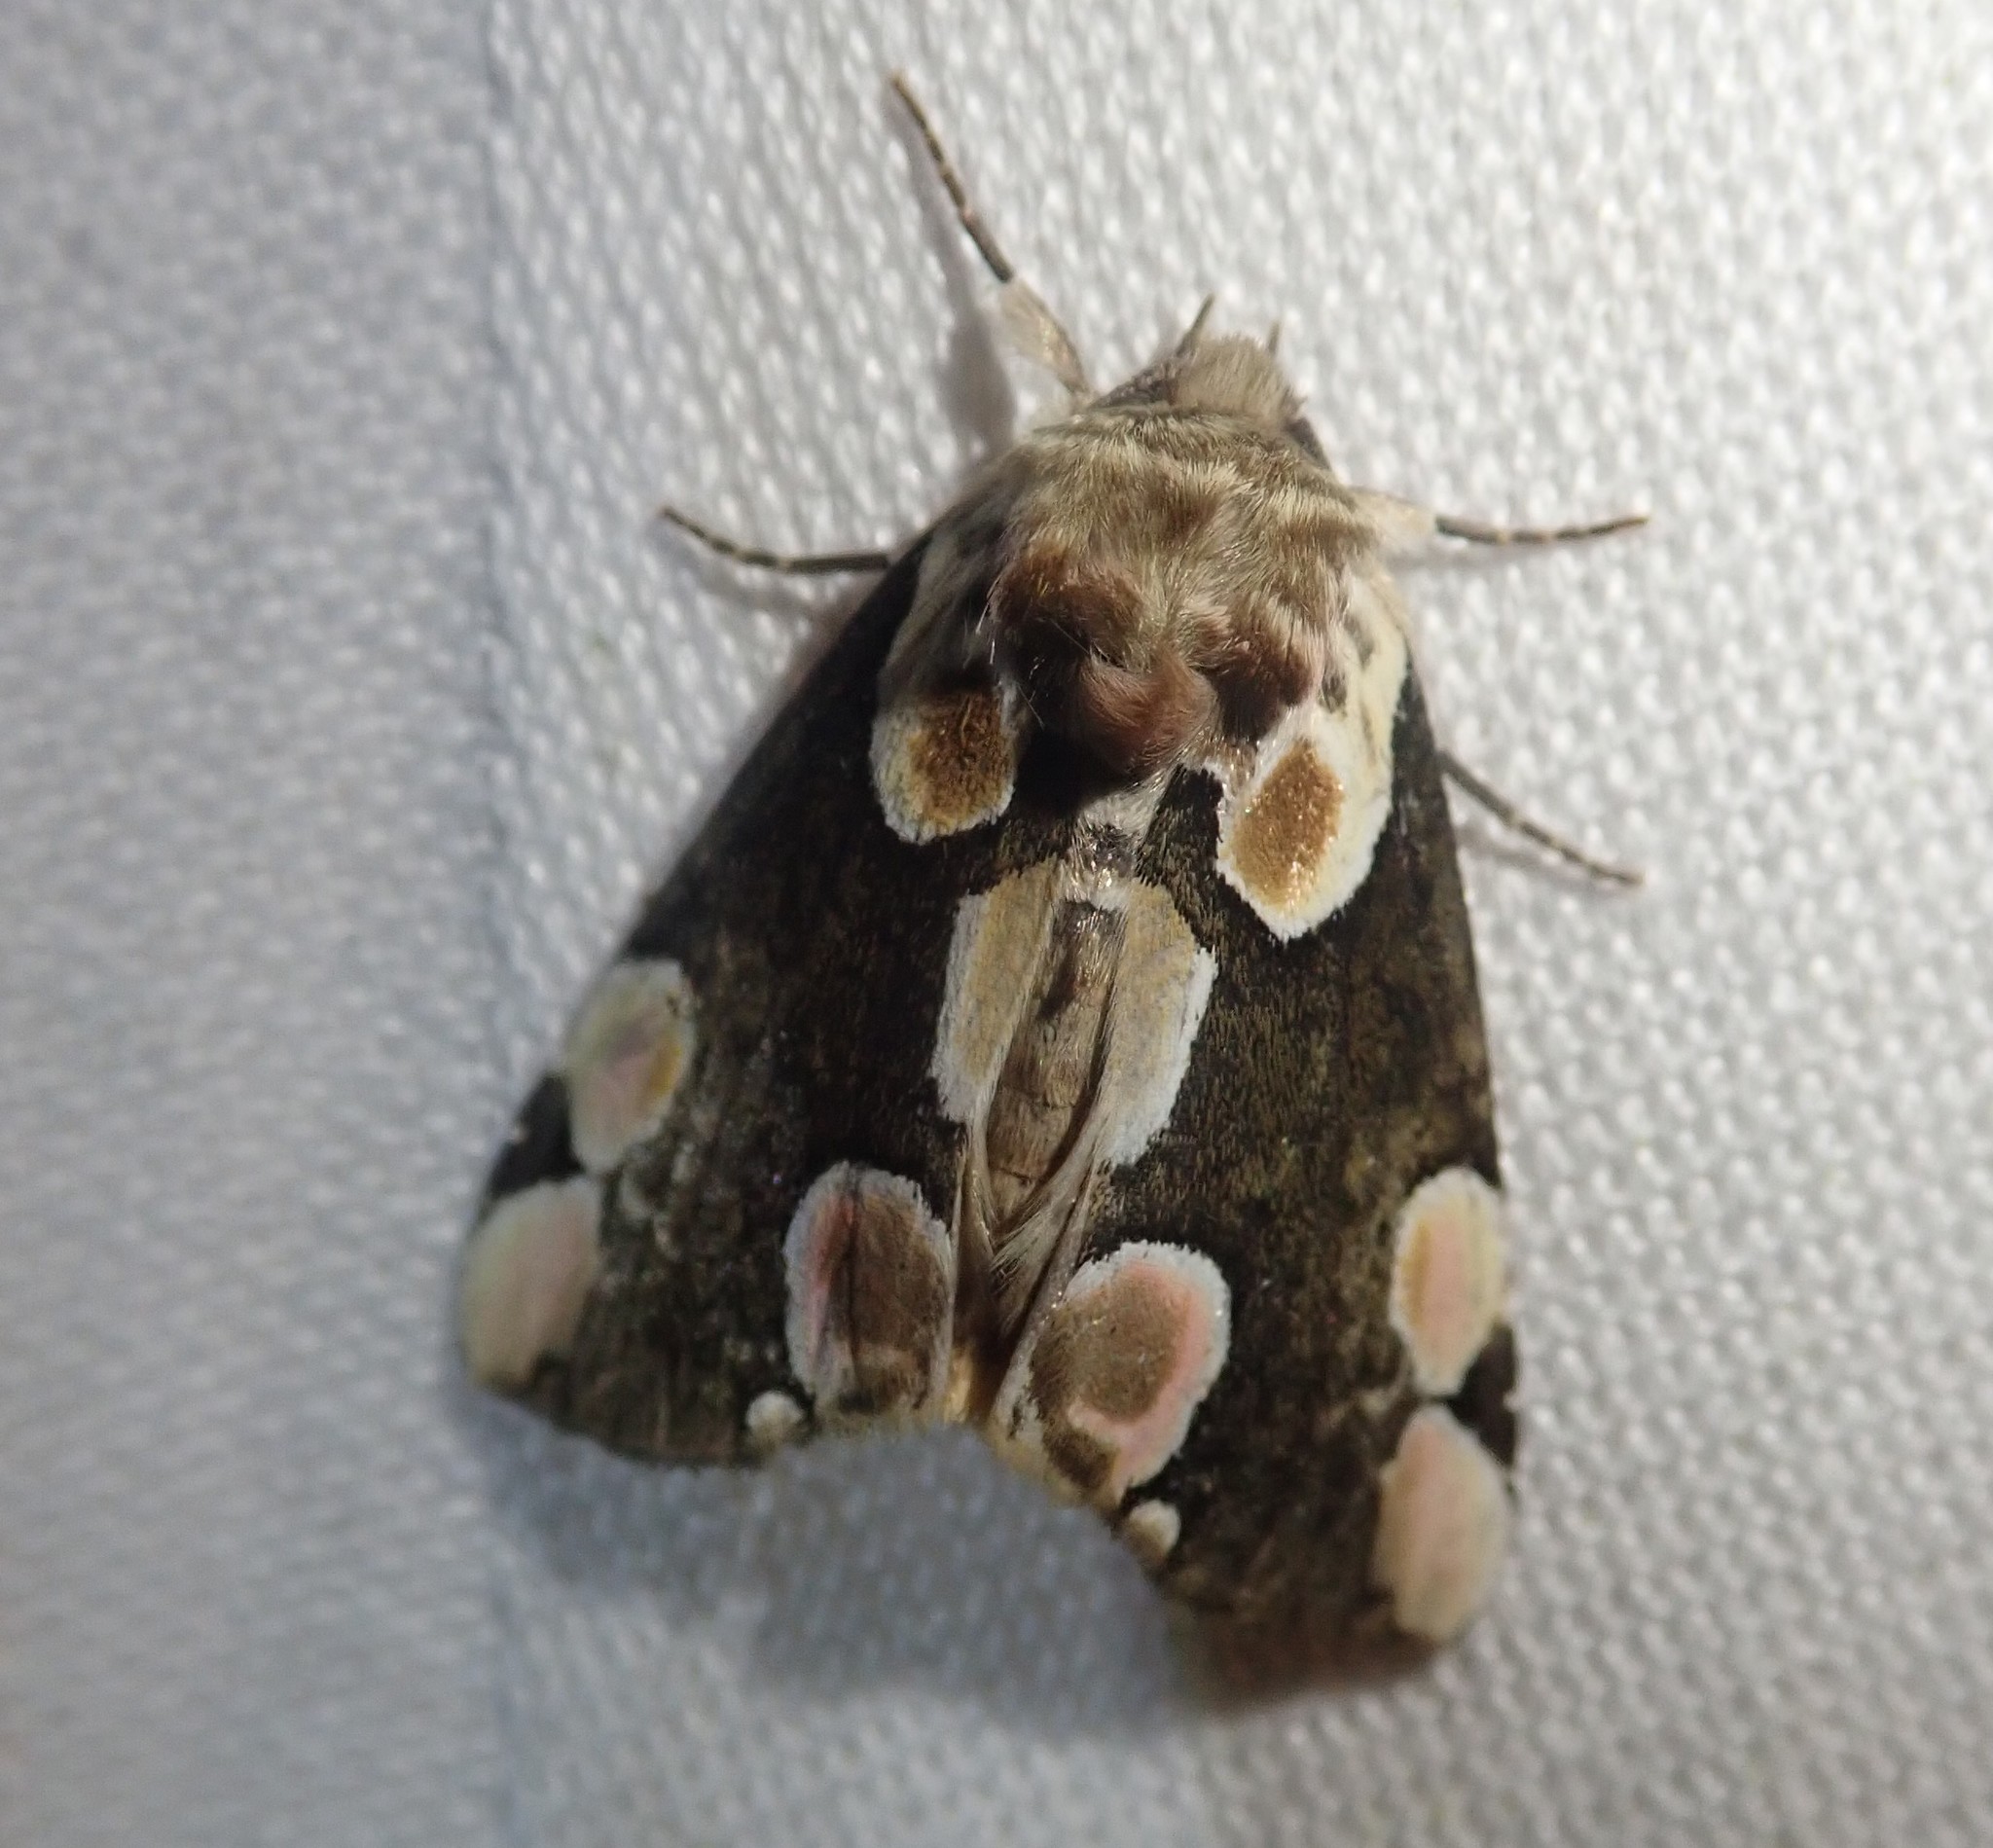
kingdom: Animalia
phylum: Arthropoda
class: Insecta
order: Lepidoptera
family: Drepanidae
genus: Thyatira
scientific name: Thyatira batis
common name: Peach blossom
